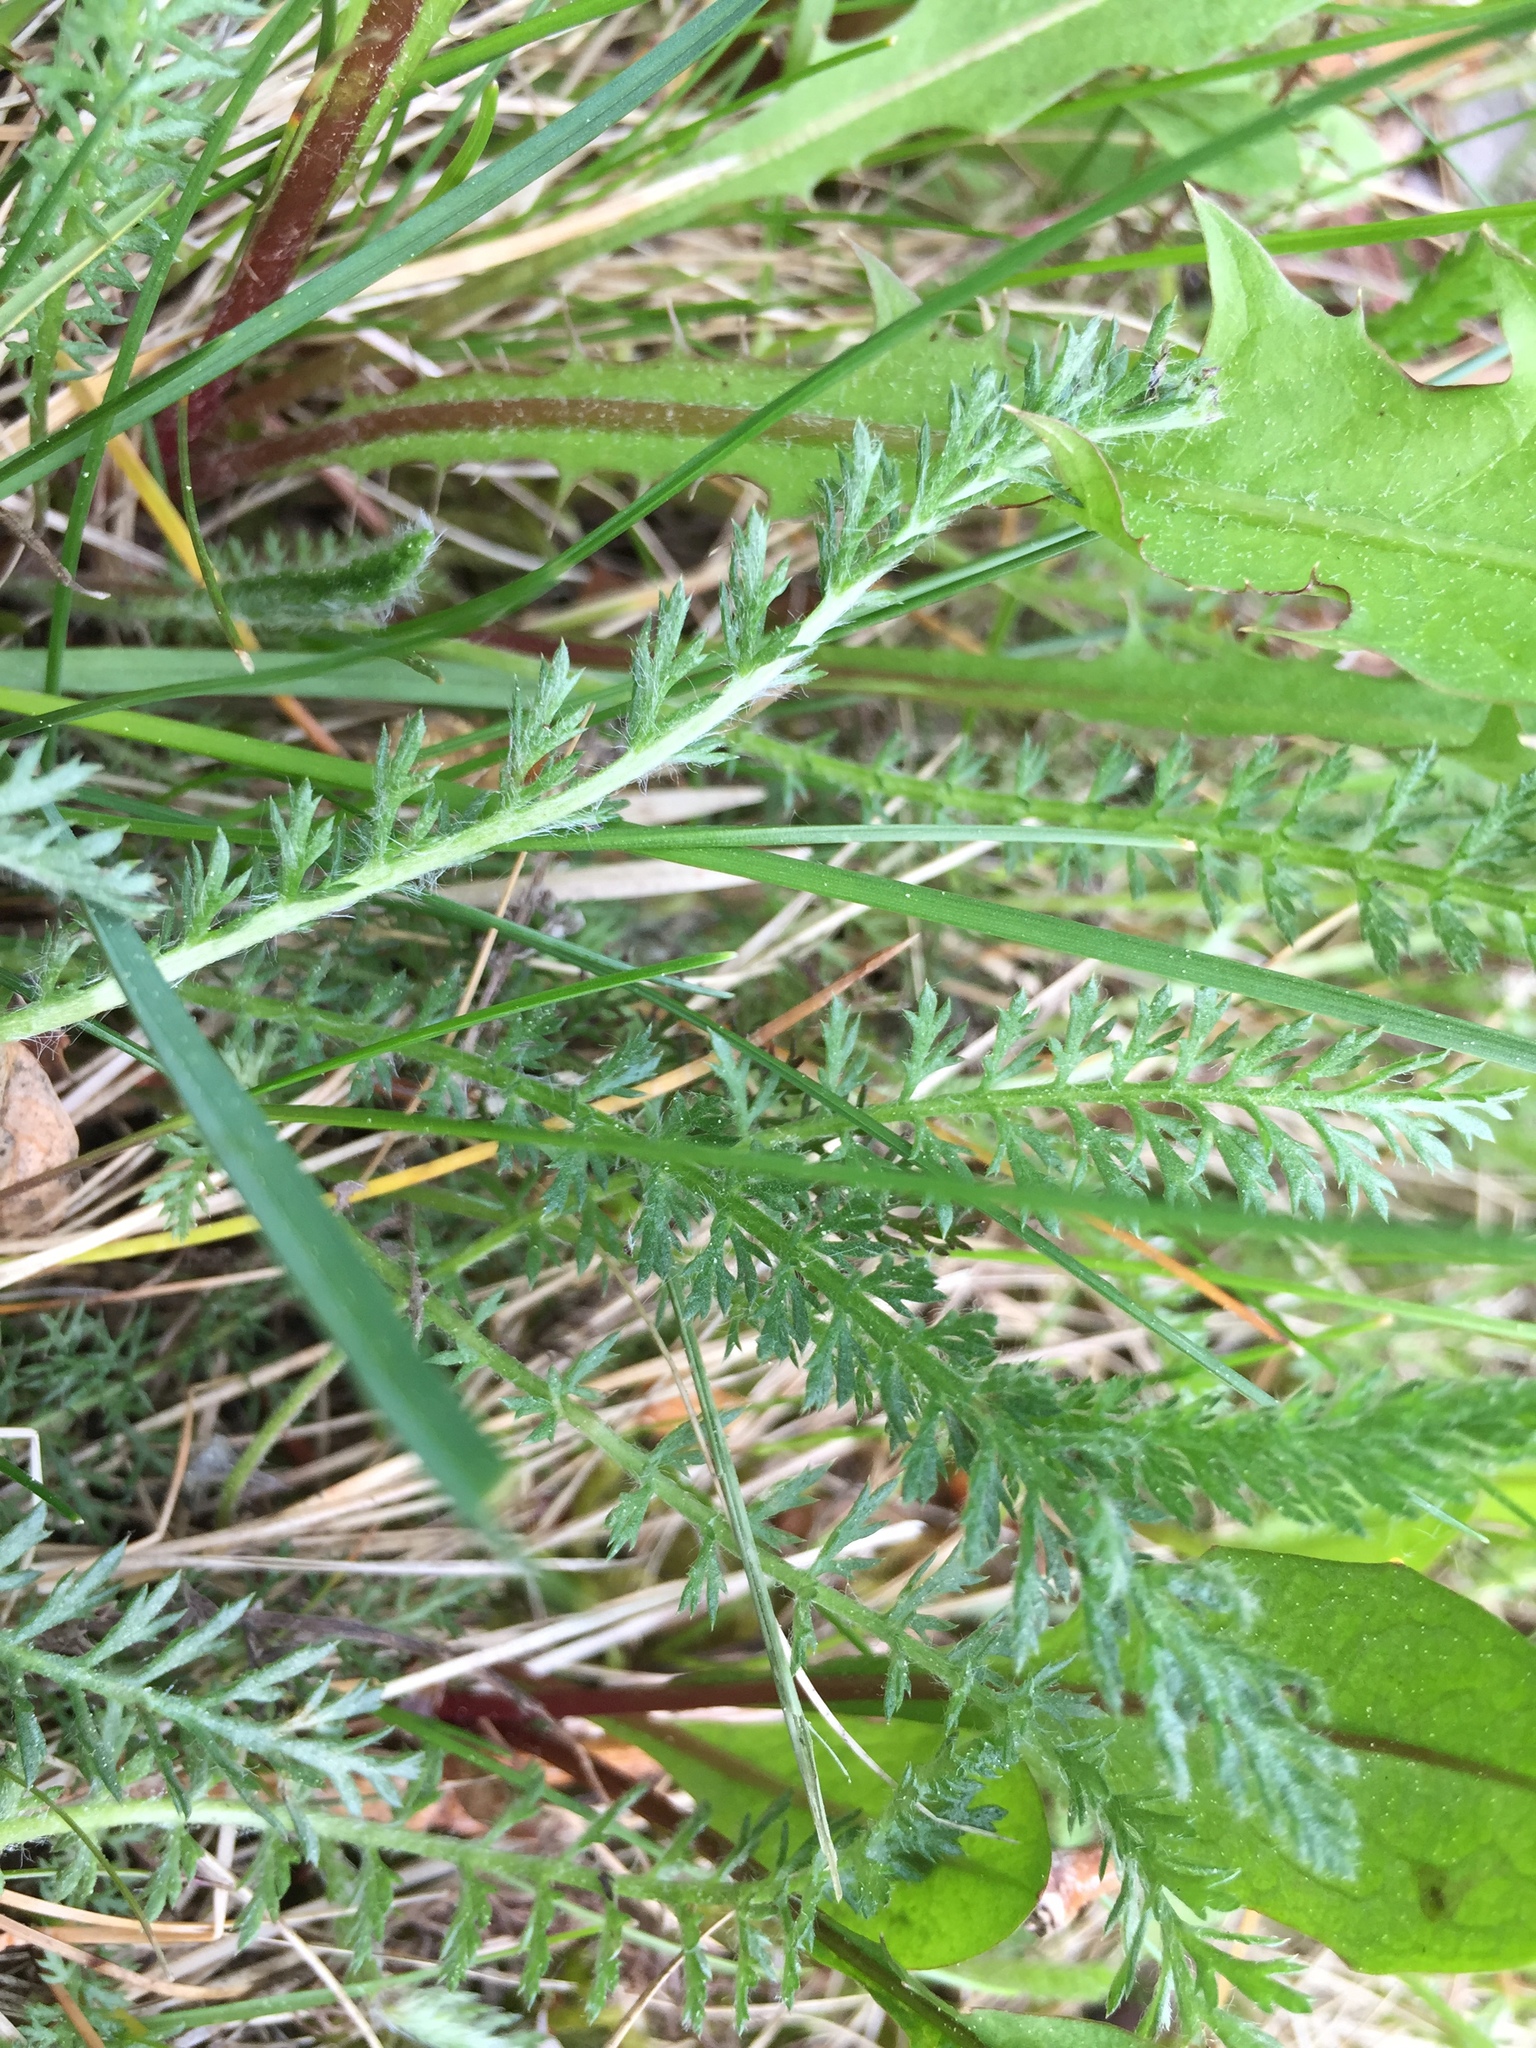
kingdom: Plantae
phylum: Tracheophyta
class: Magnoliopsida
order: Asterales
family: Asteraceae
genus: Achillea
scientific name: Achillea millefolium
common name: Yarrow
